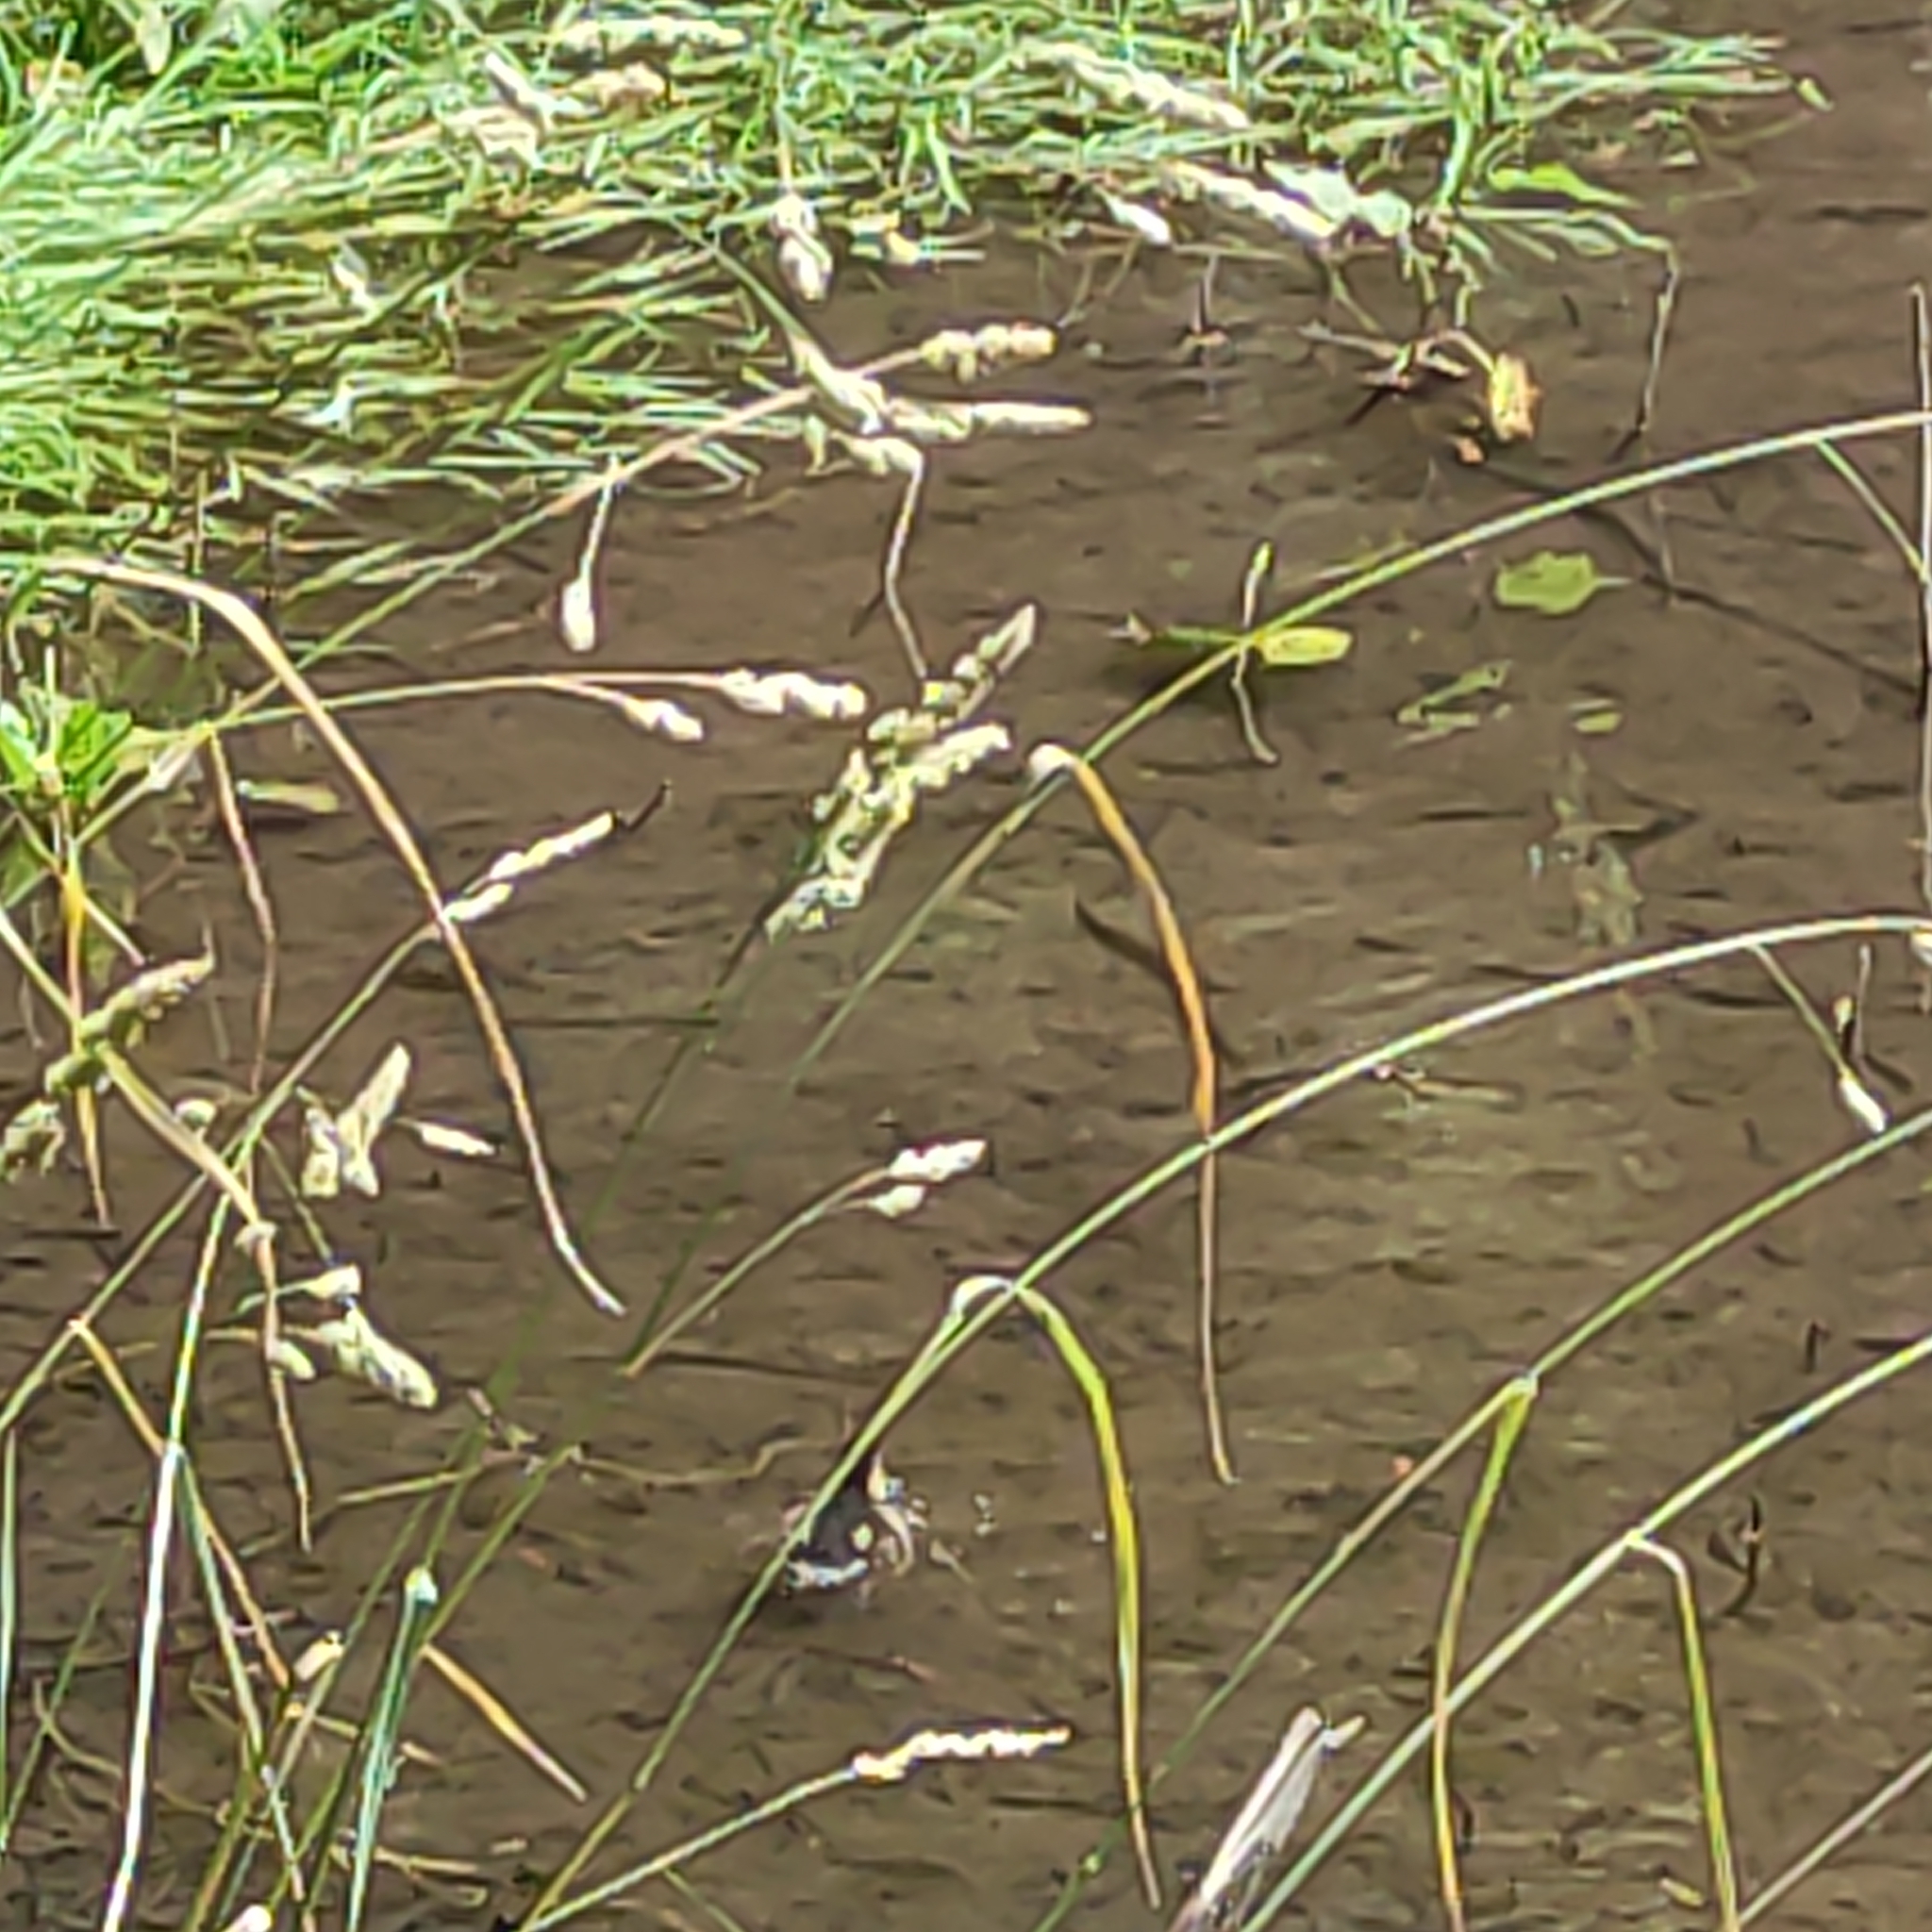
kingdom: Animalia
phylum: Chordata
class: Aves
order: Anseriformes
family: Anatidae
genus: Anas
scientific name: Anas
